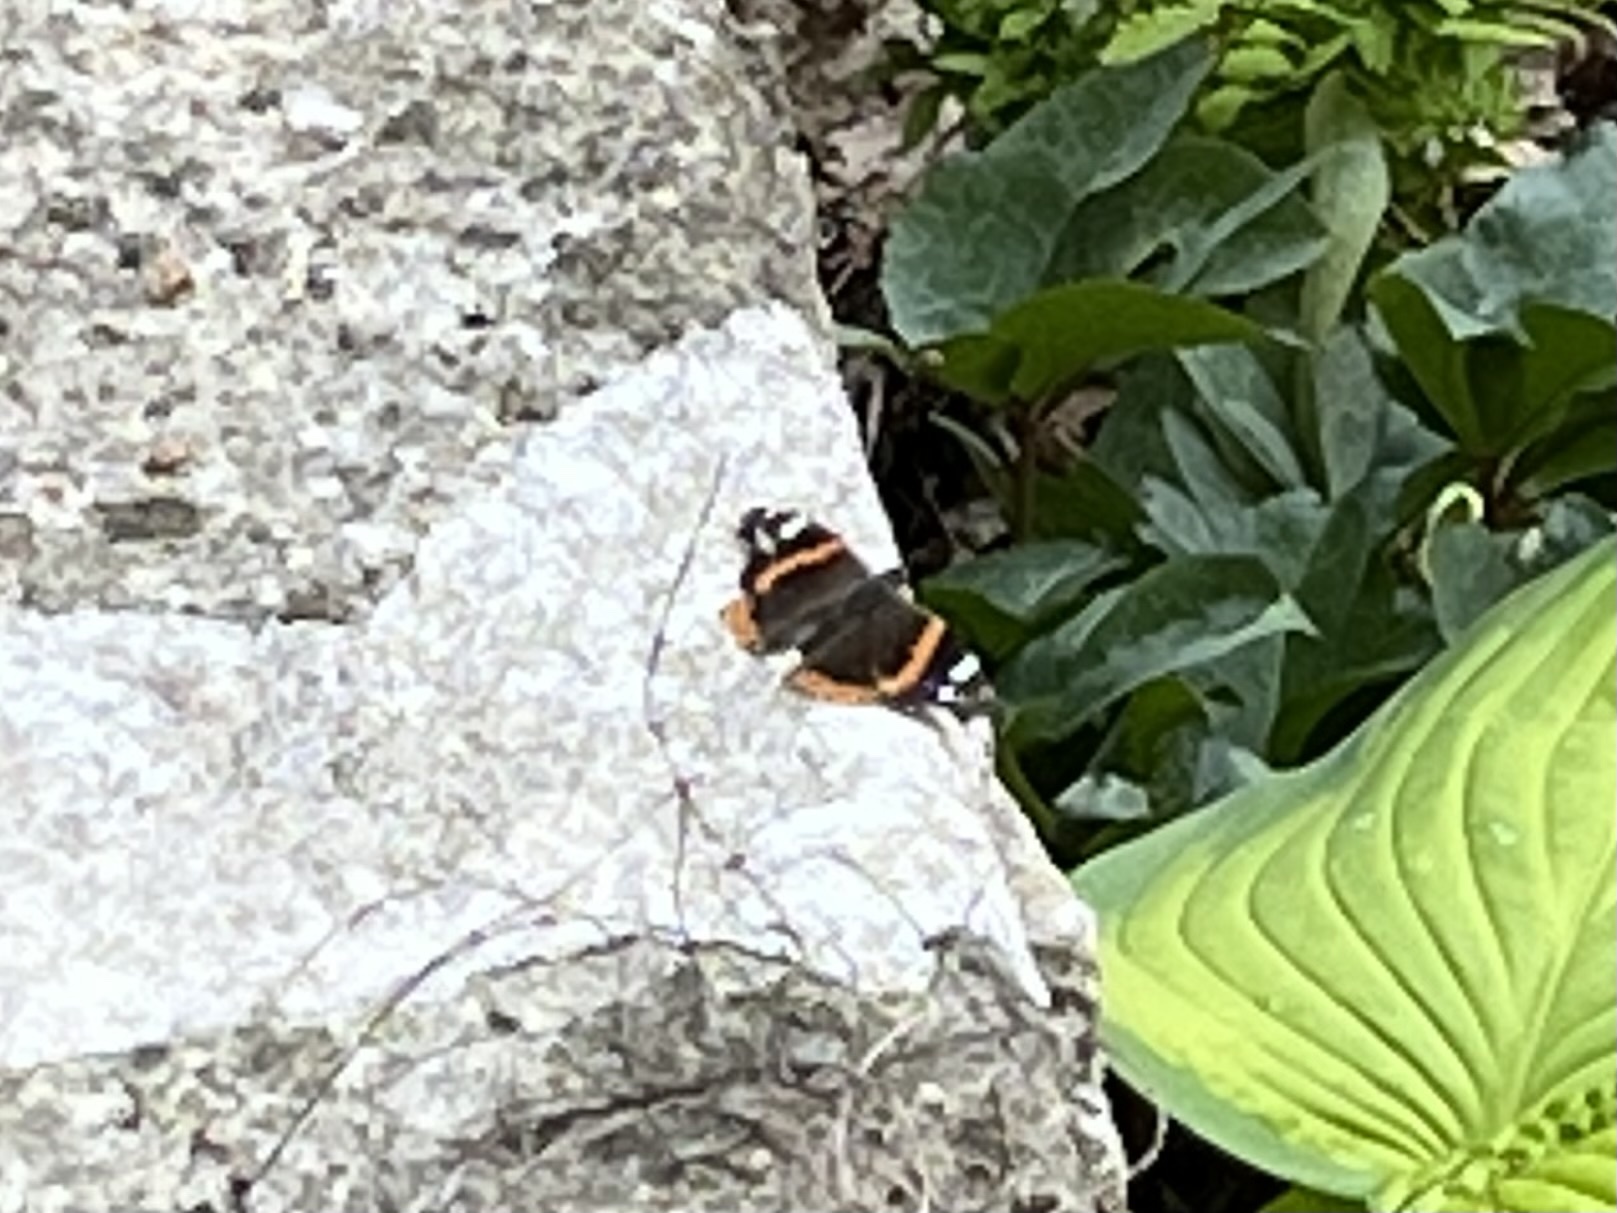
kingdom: Animalia
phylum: Arthropoda
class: Insecta
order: Lepidoptera
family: Nymphalidae
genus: Vanessa
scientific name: Vanessa atalanta
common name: Red admiral
